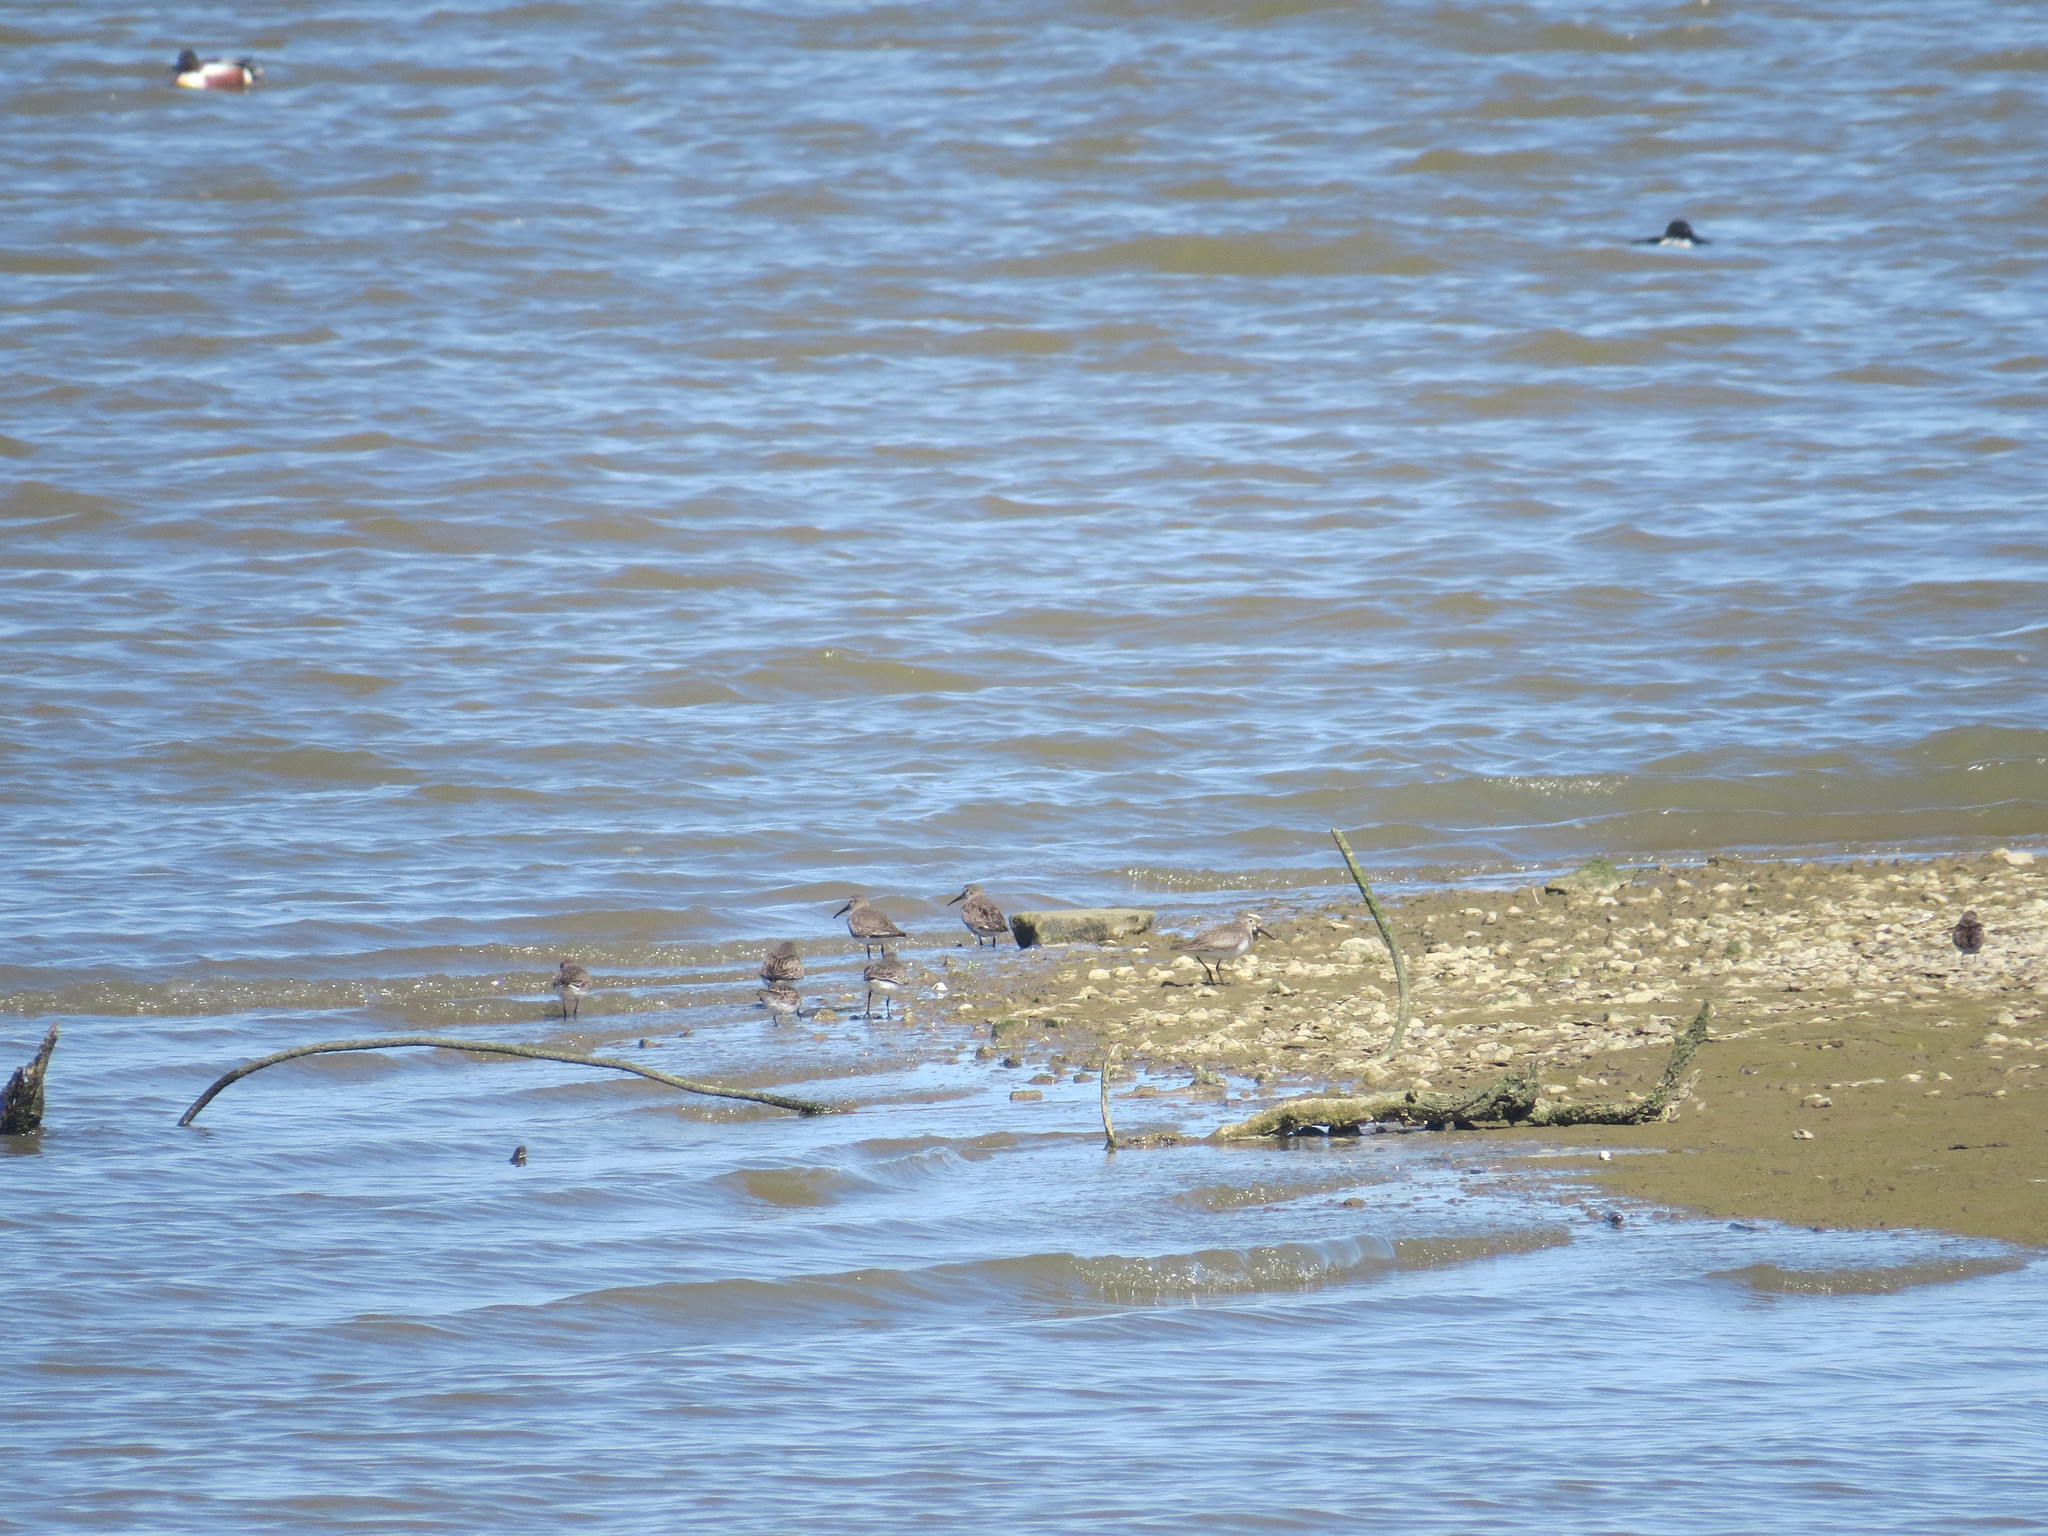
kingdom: Animalia
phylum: Chordata
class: Aves
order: Charadriiformes
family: Scolopacidae
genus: Calidris
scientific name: Calidris alpina
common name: Dunlin
